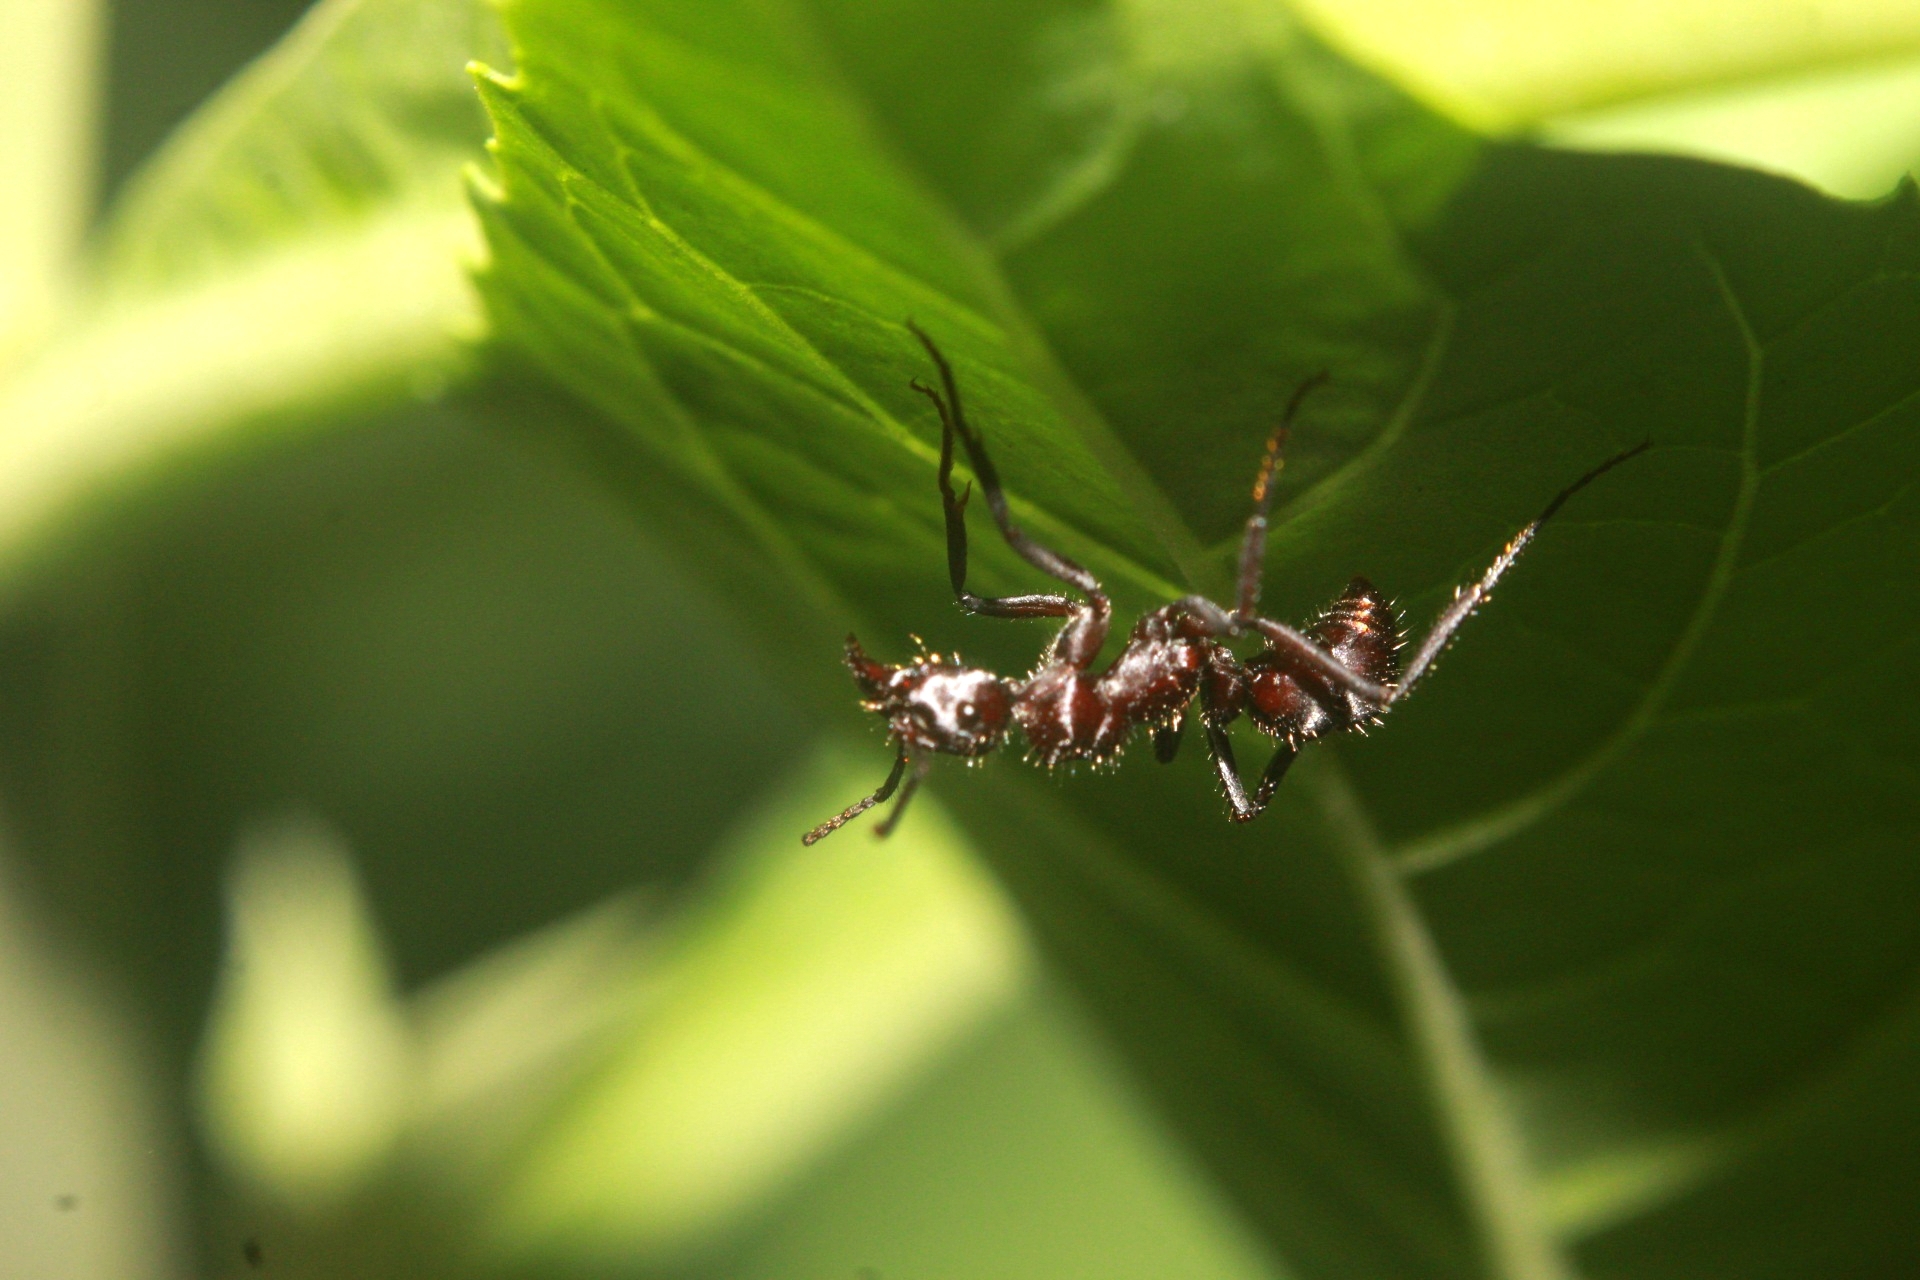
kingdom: Animalia
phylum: Arthropoda
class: Insecta
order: Hymenoptera
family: Formicidae
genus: Ectatomma
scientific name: Ectatomma brunneum
